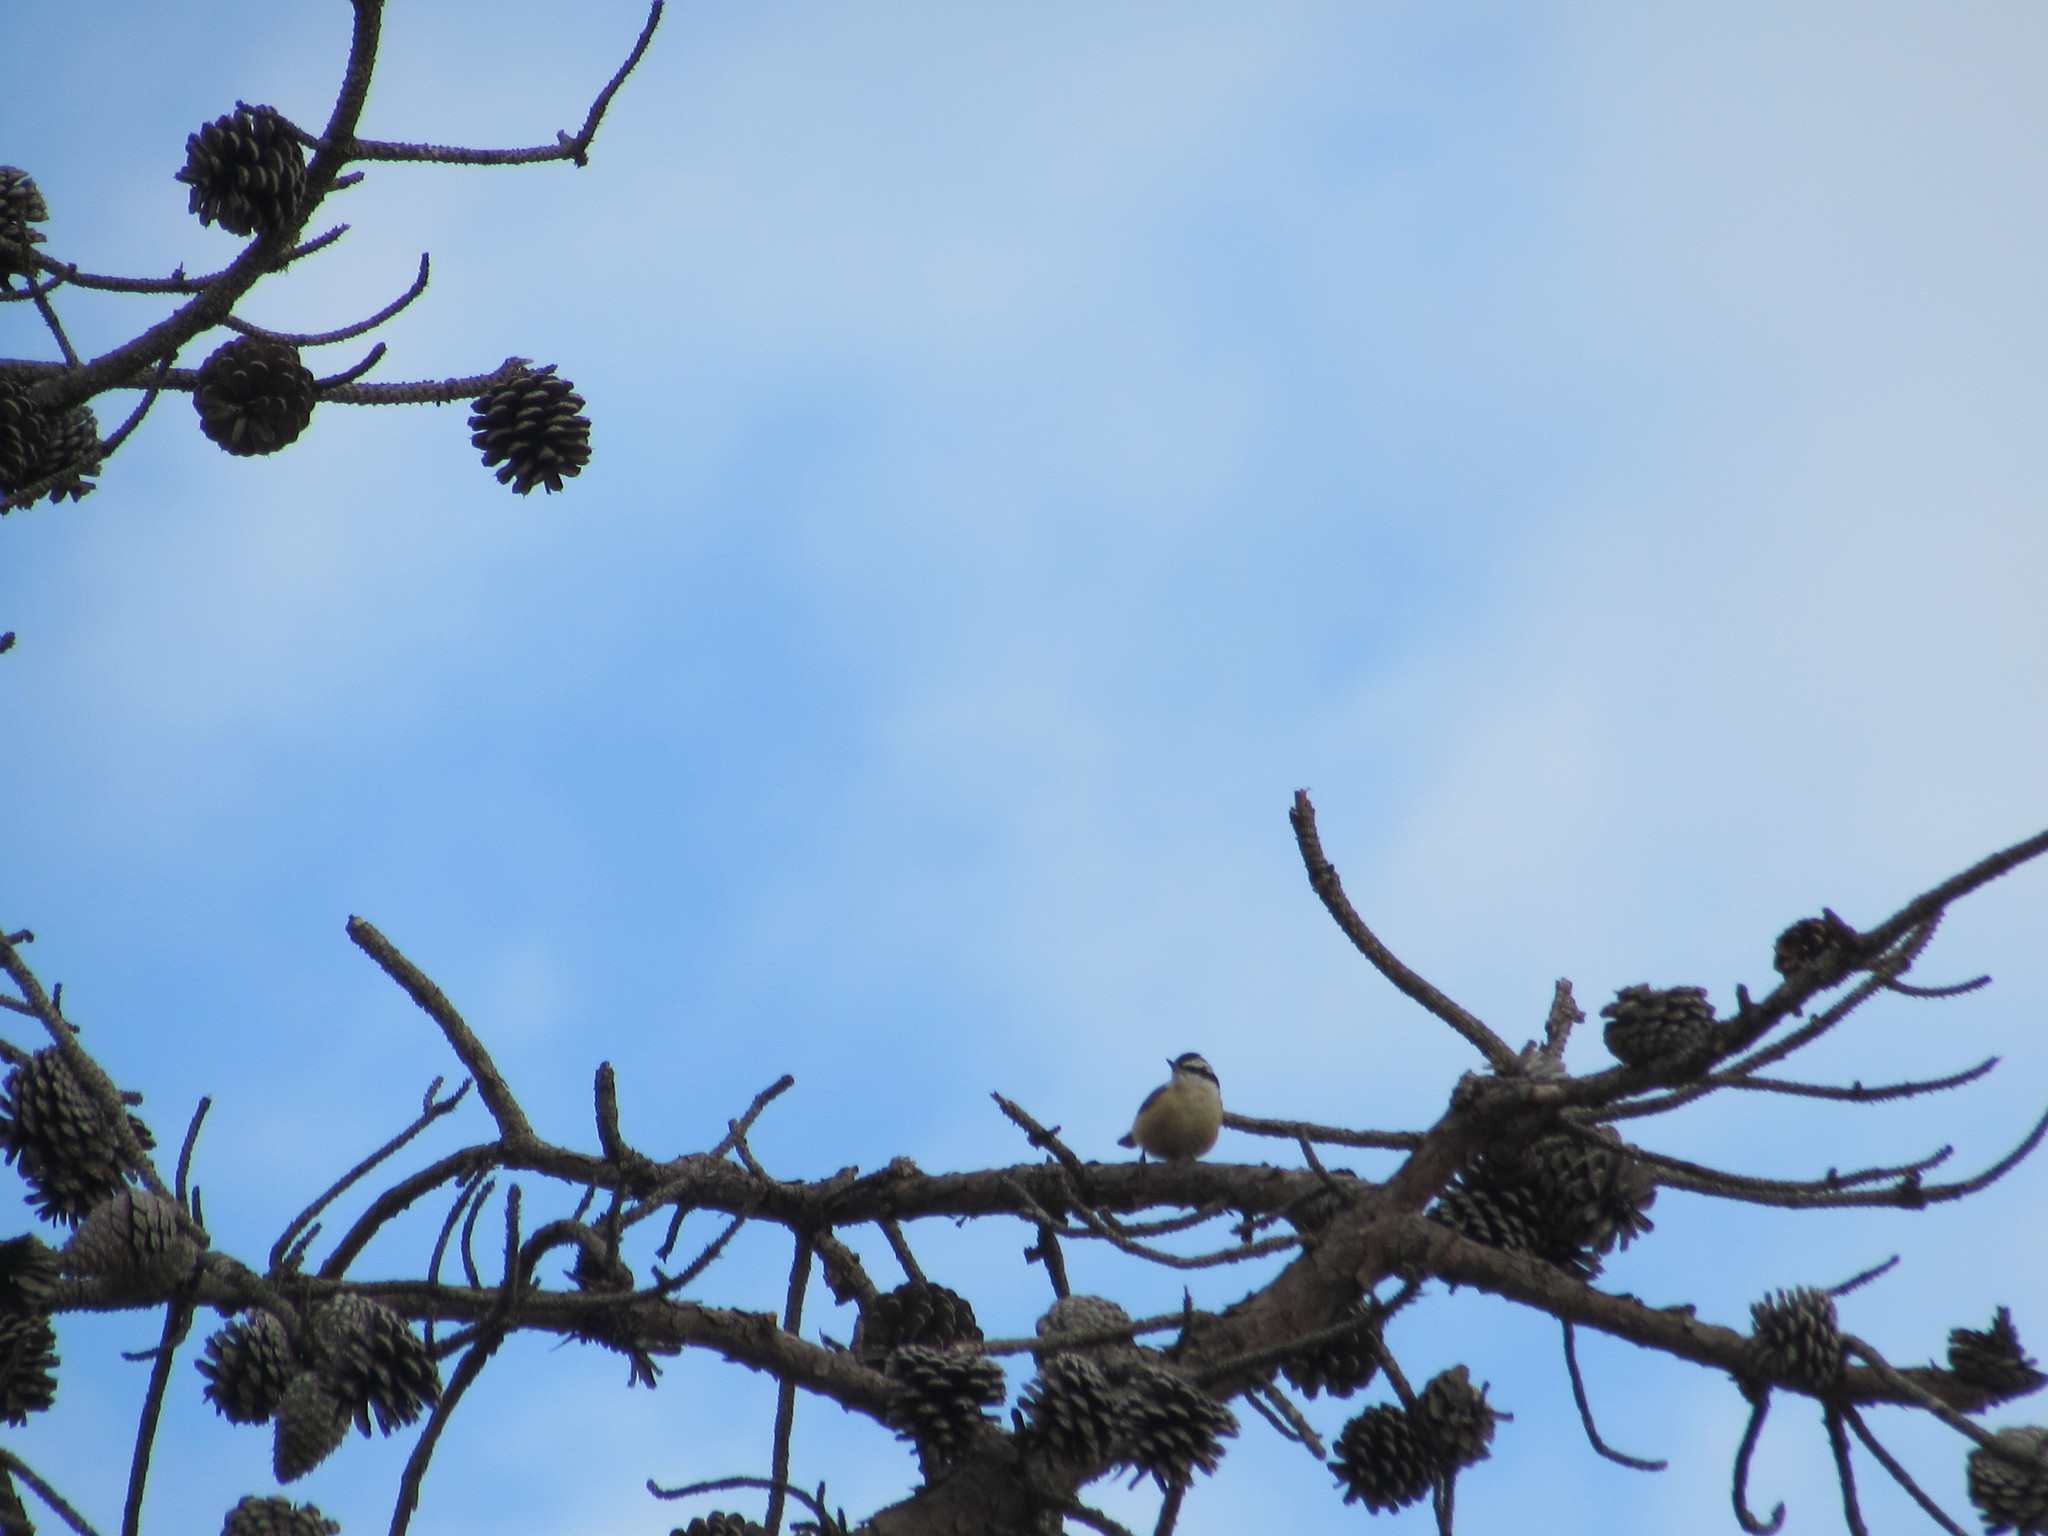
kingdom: Animalia
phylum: Chordata
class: Aves
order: Passeriformes
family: Sittidae
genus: Sitta
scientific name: Sitta canadensis
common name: Red-breasted nuthatch
